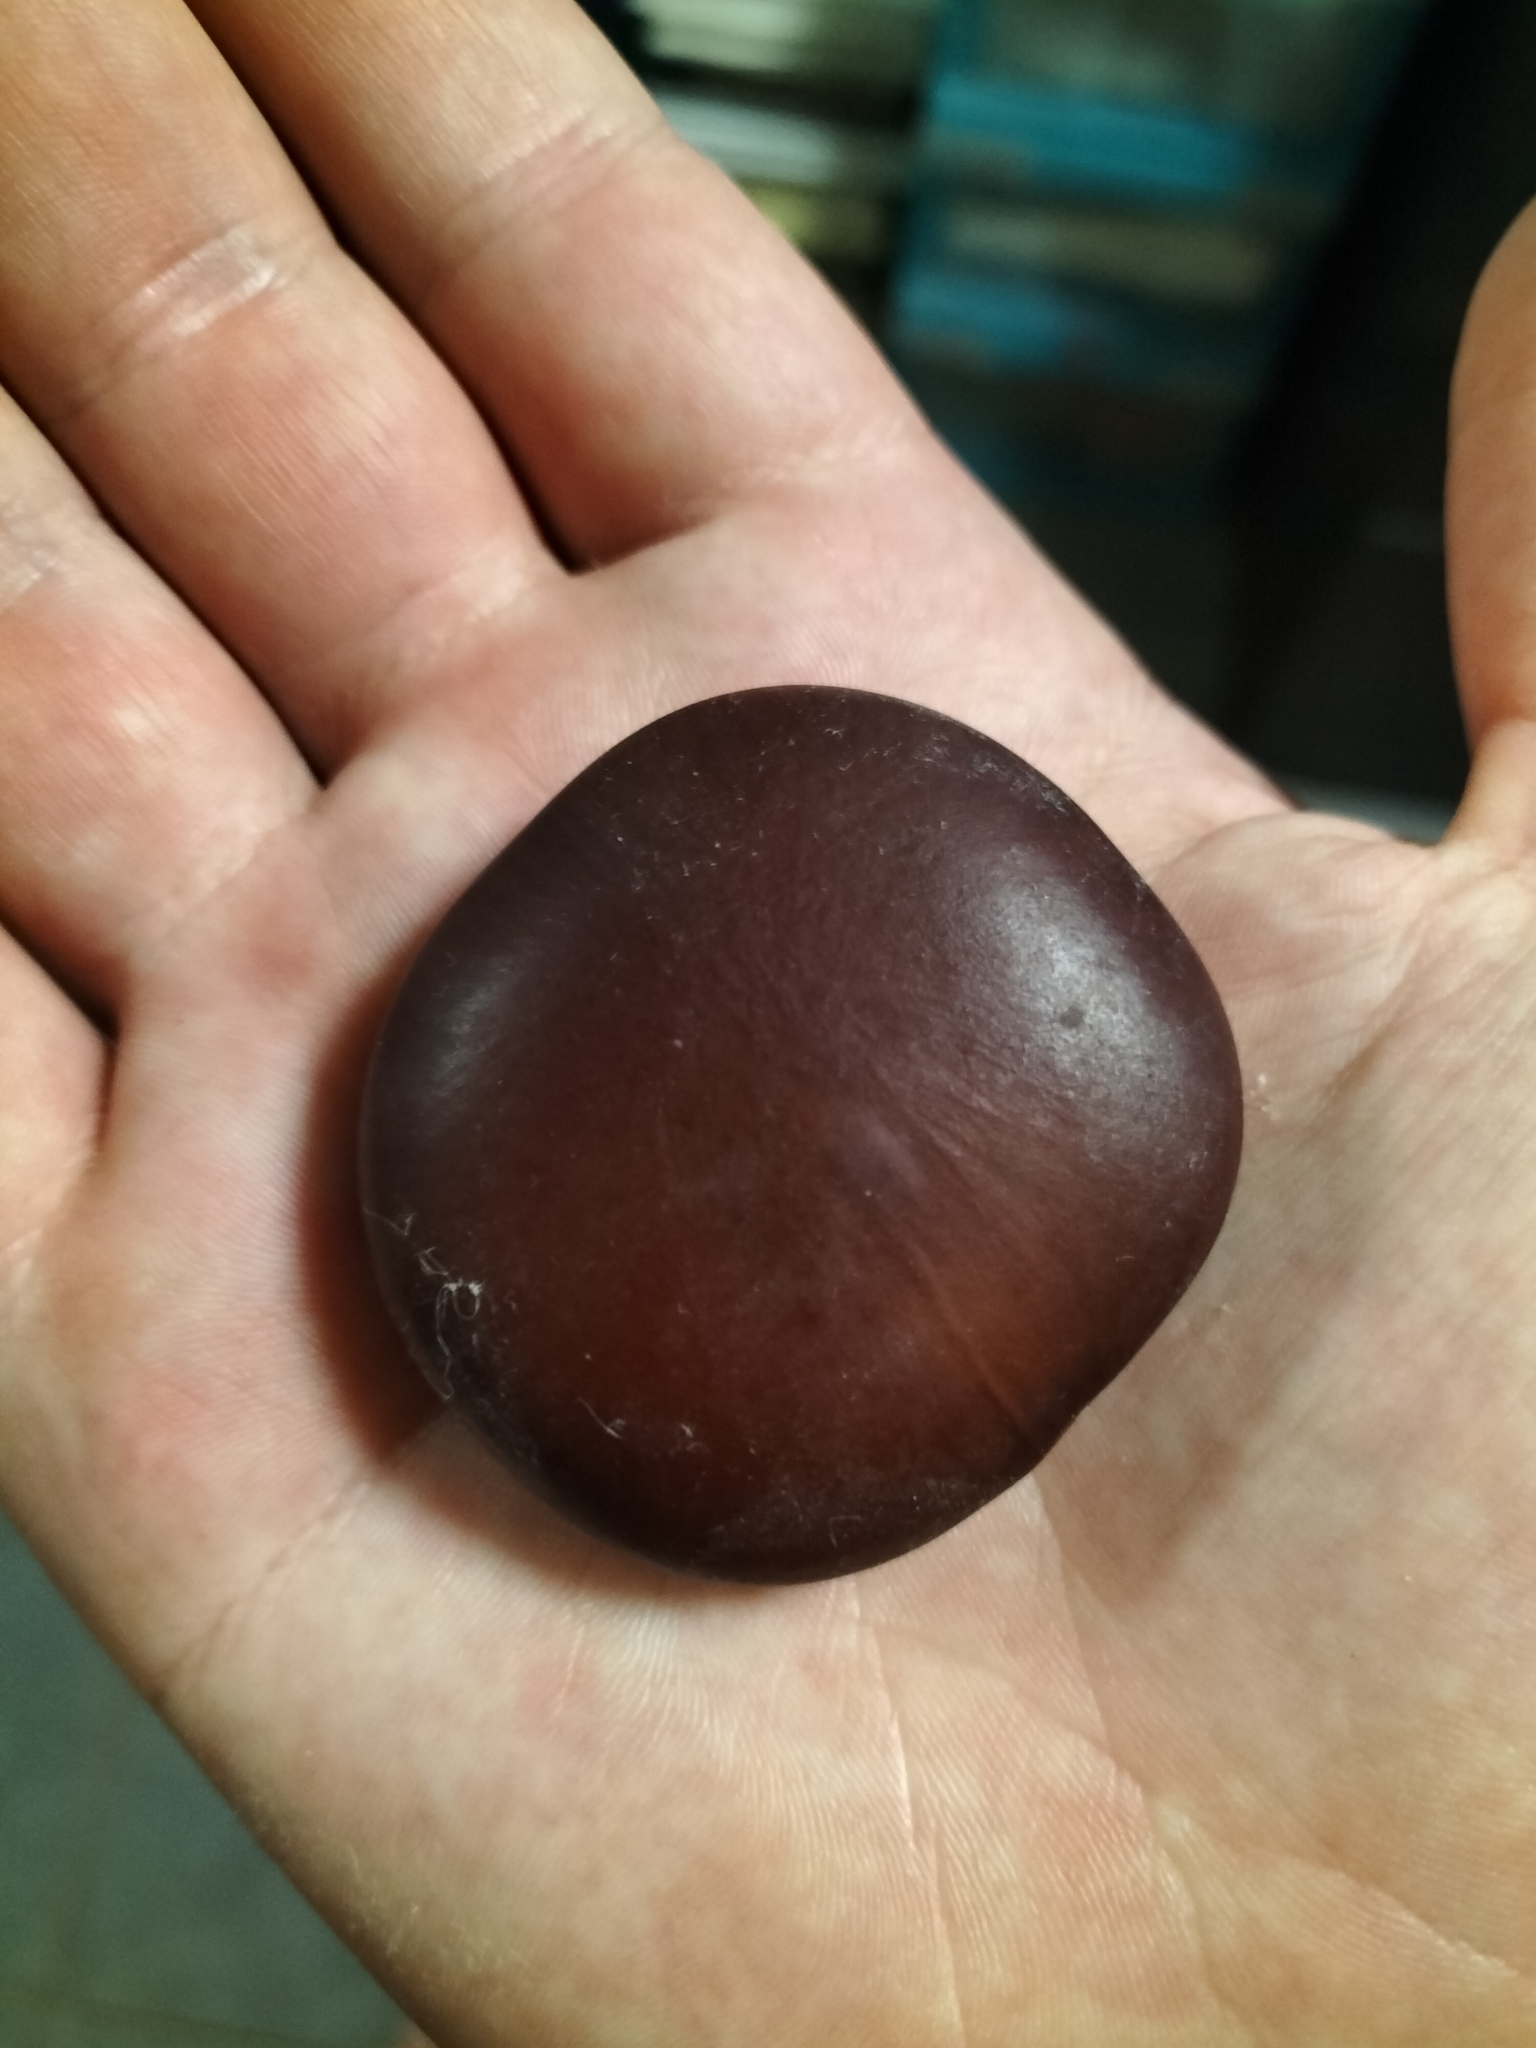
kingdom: Plantae
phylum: Tracheophyta
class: Magnoliopsida
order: Fabales
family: Fabaceae
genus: Entada
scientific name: Entada rheedei
